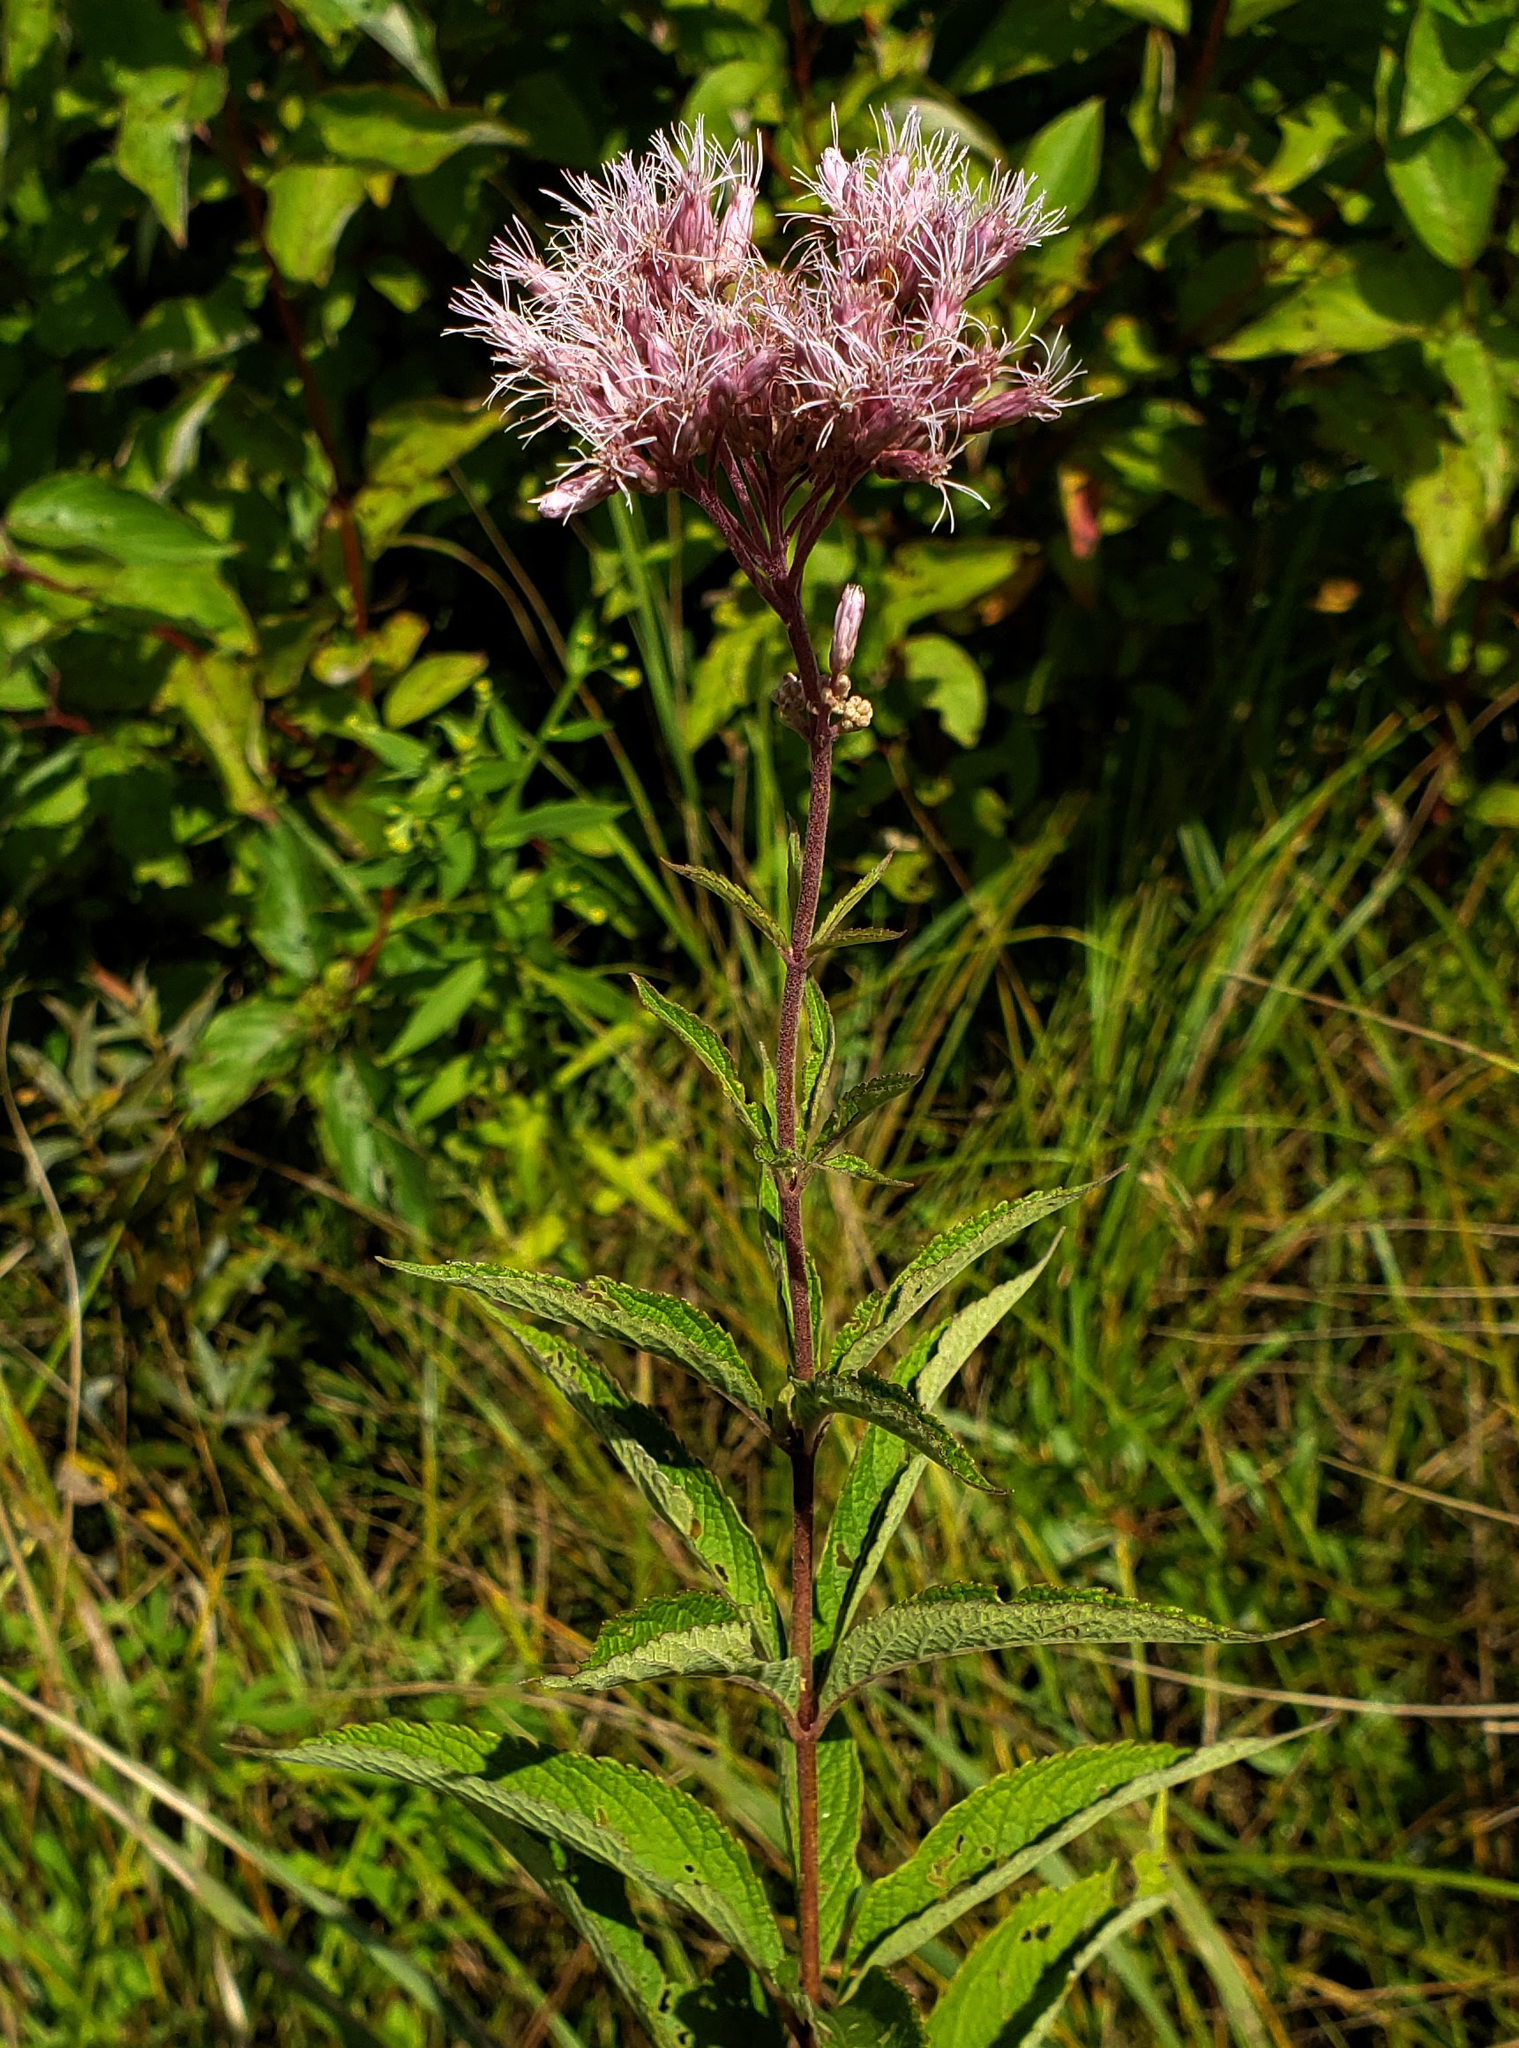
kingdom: Plantae
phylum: Tracheophyta
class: Magnoliopsida
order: Asterales
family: Asteraceae
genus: Eutrochium
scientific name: Eutrochium maculatum
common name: Spotted joe pye weed
